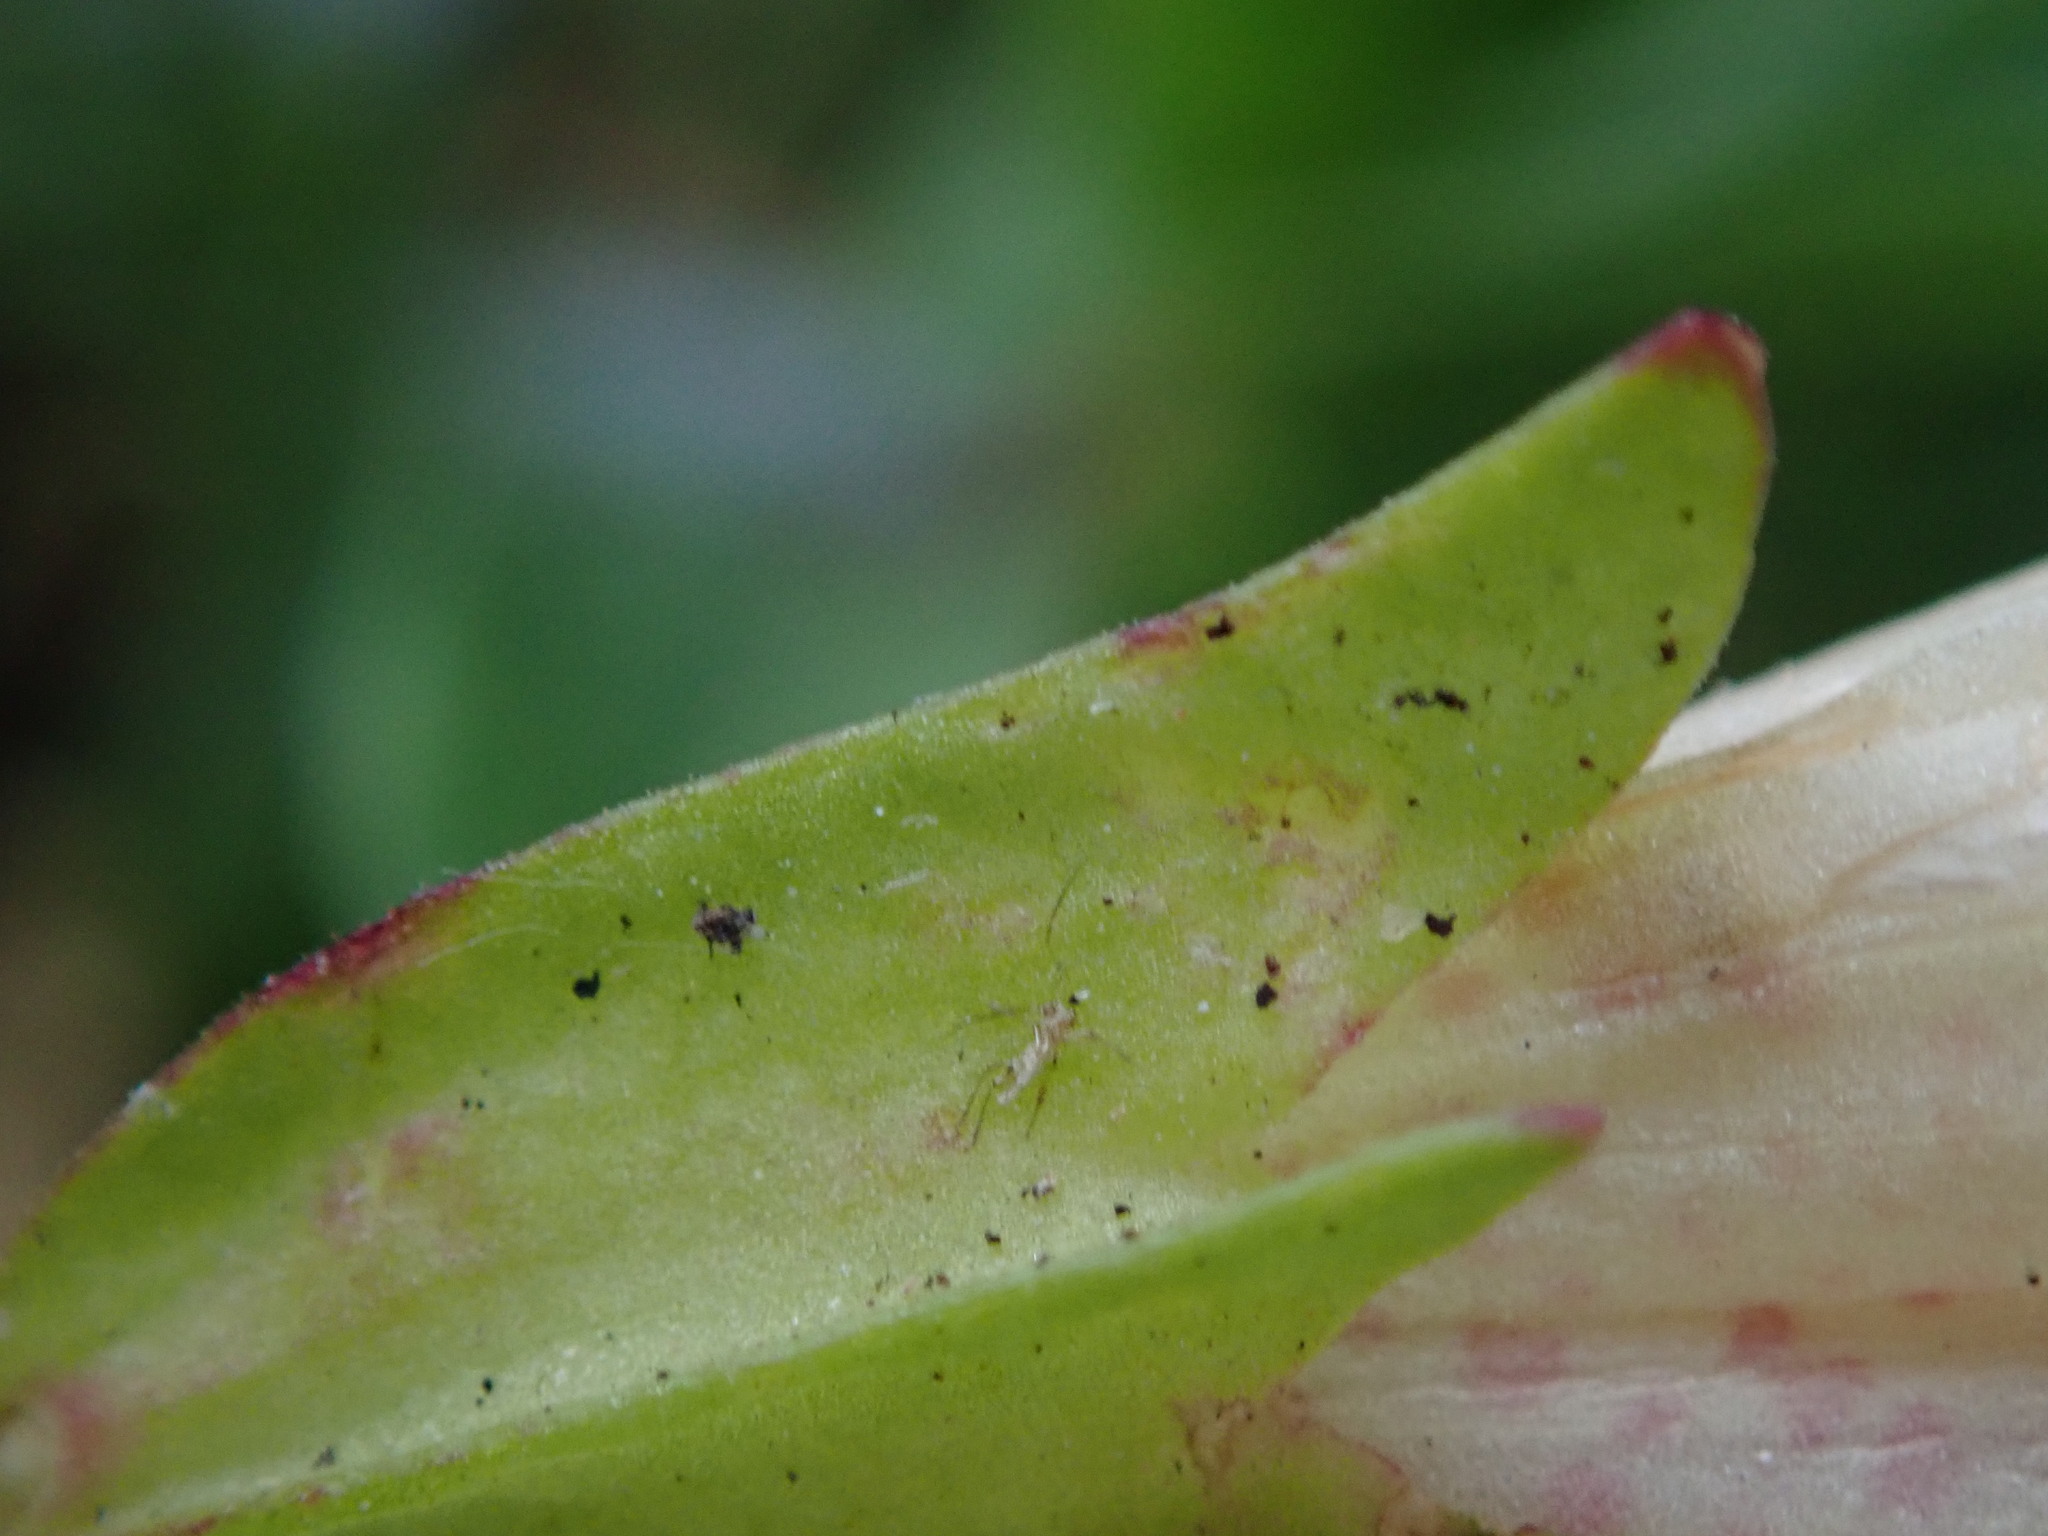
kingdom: Plantae
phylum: Tracheophyta
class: Magnoliopsida
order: Lamiales
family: Phrymaceae
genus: Erythranthe
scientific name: Erythranthe hybrida
